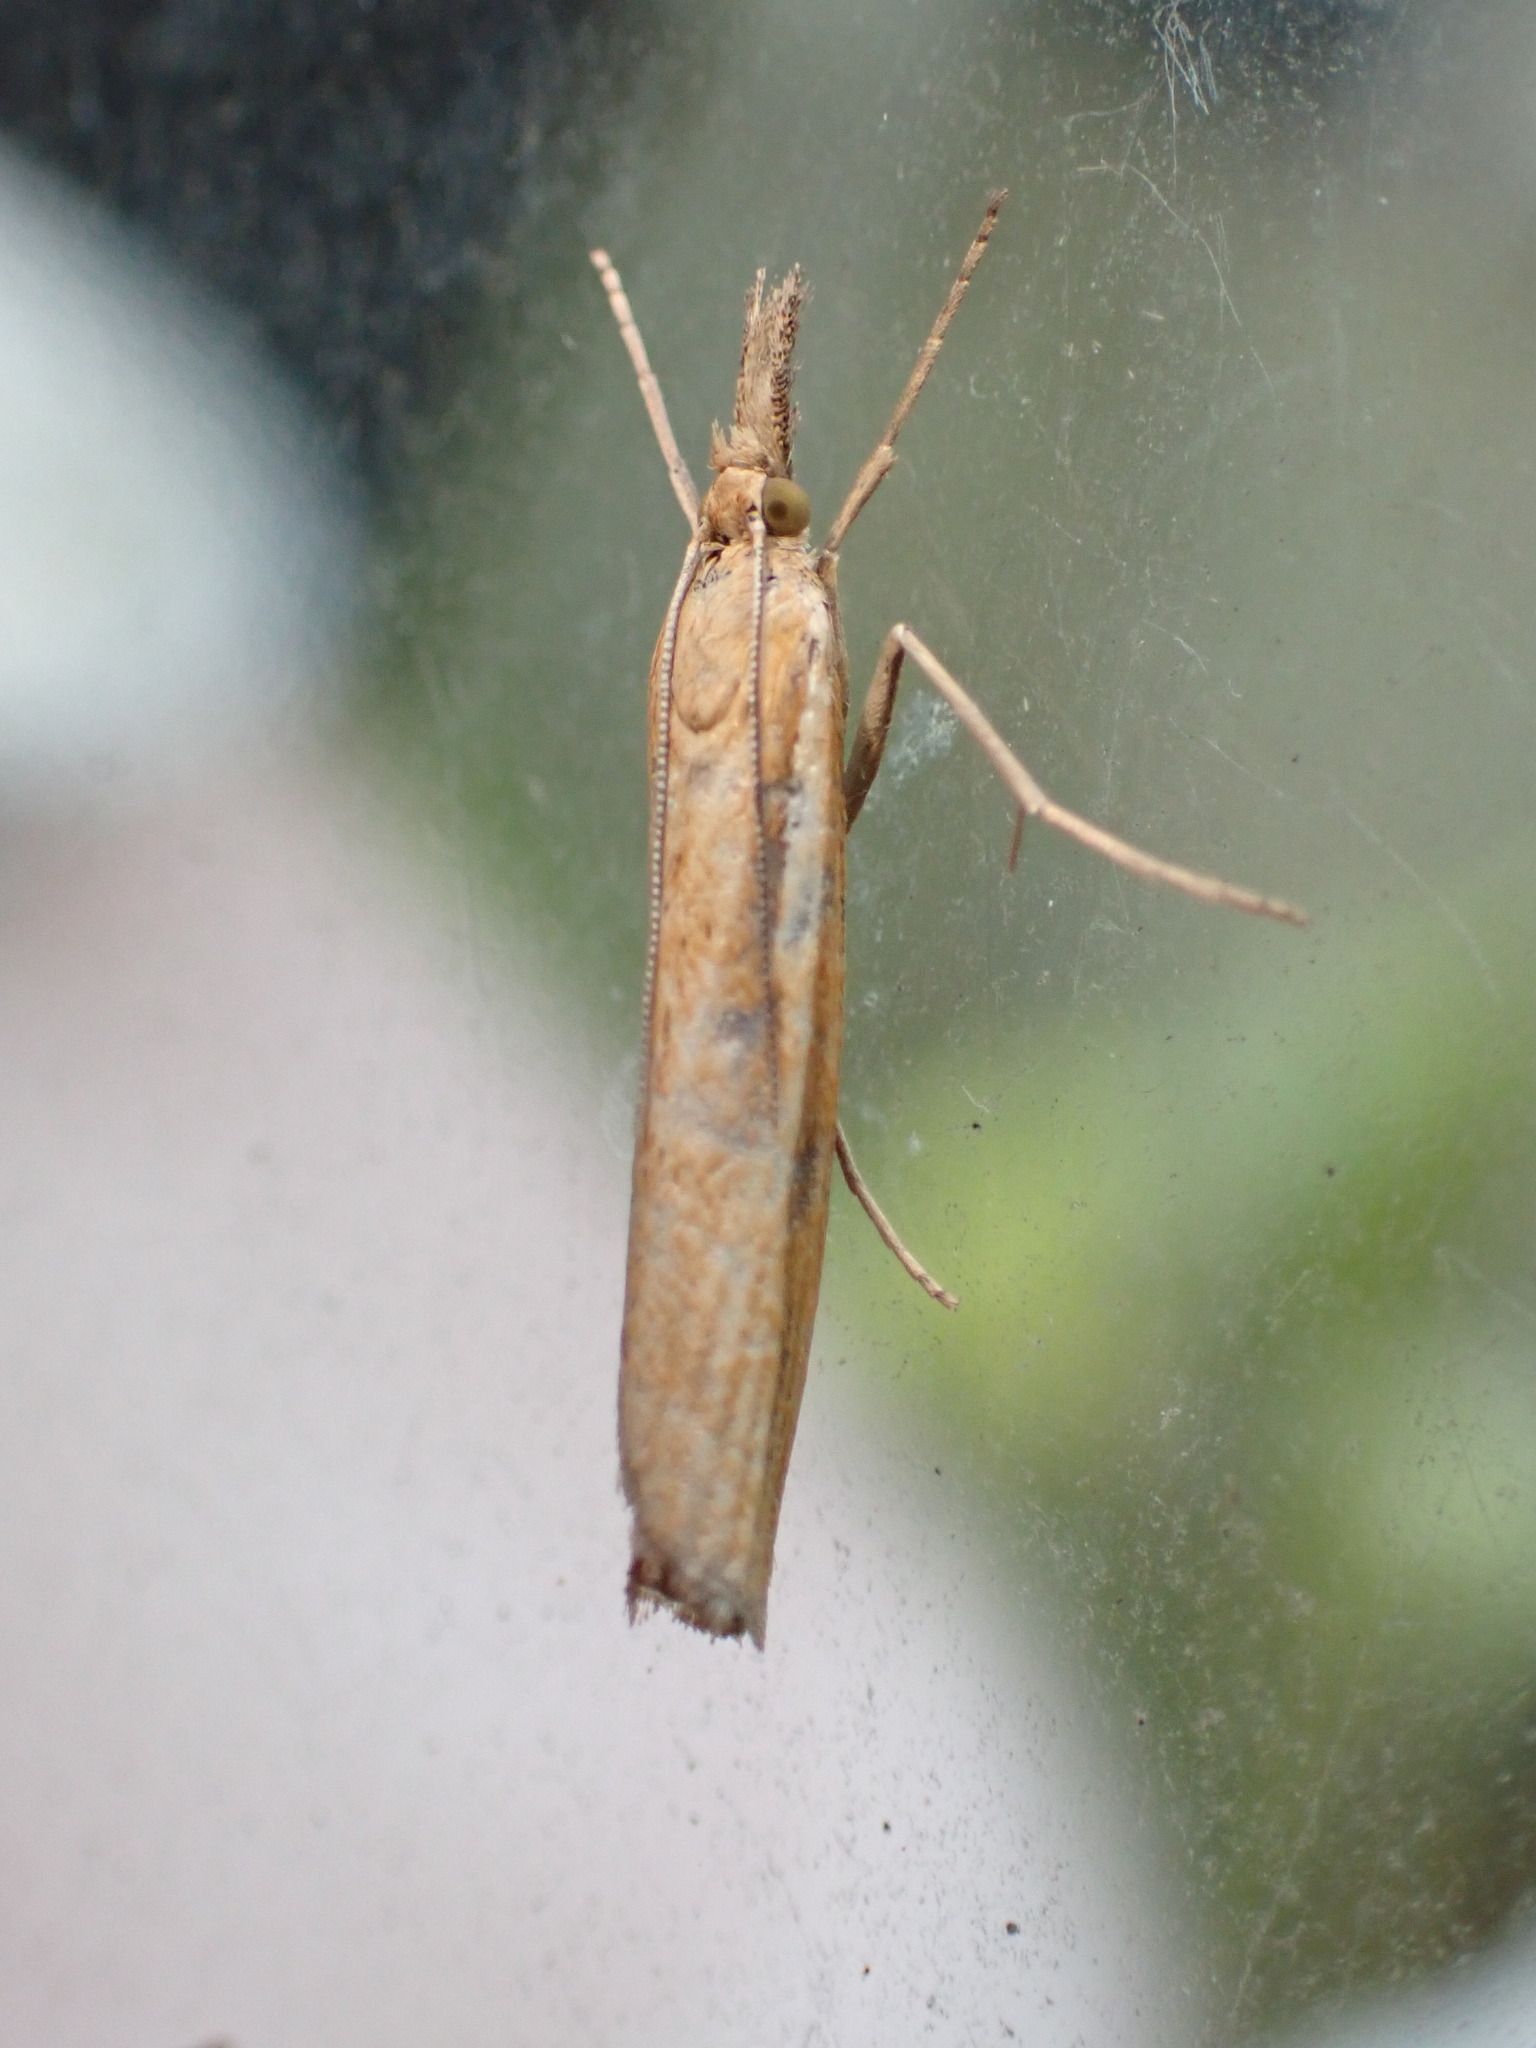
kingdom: Animalia
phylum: Arthropoda
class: Insecta
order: Lepidoptera
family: Crambidae
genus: Agriphila
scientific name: Agriphila tristellus
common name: Common grass-veneer
